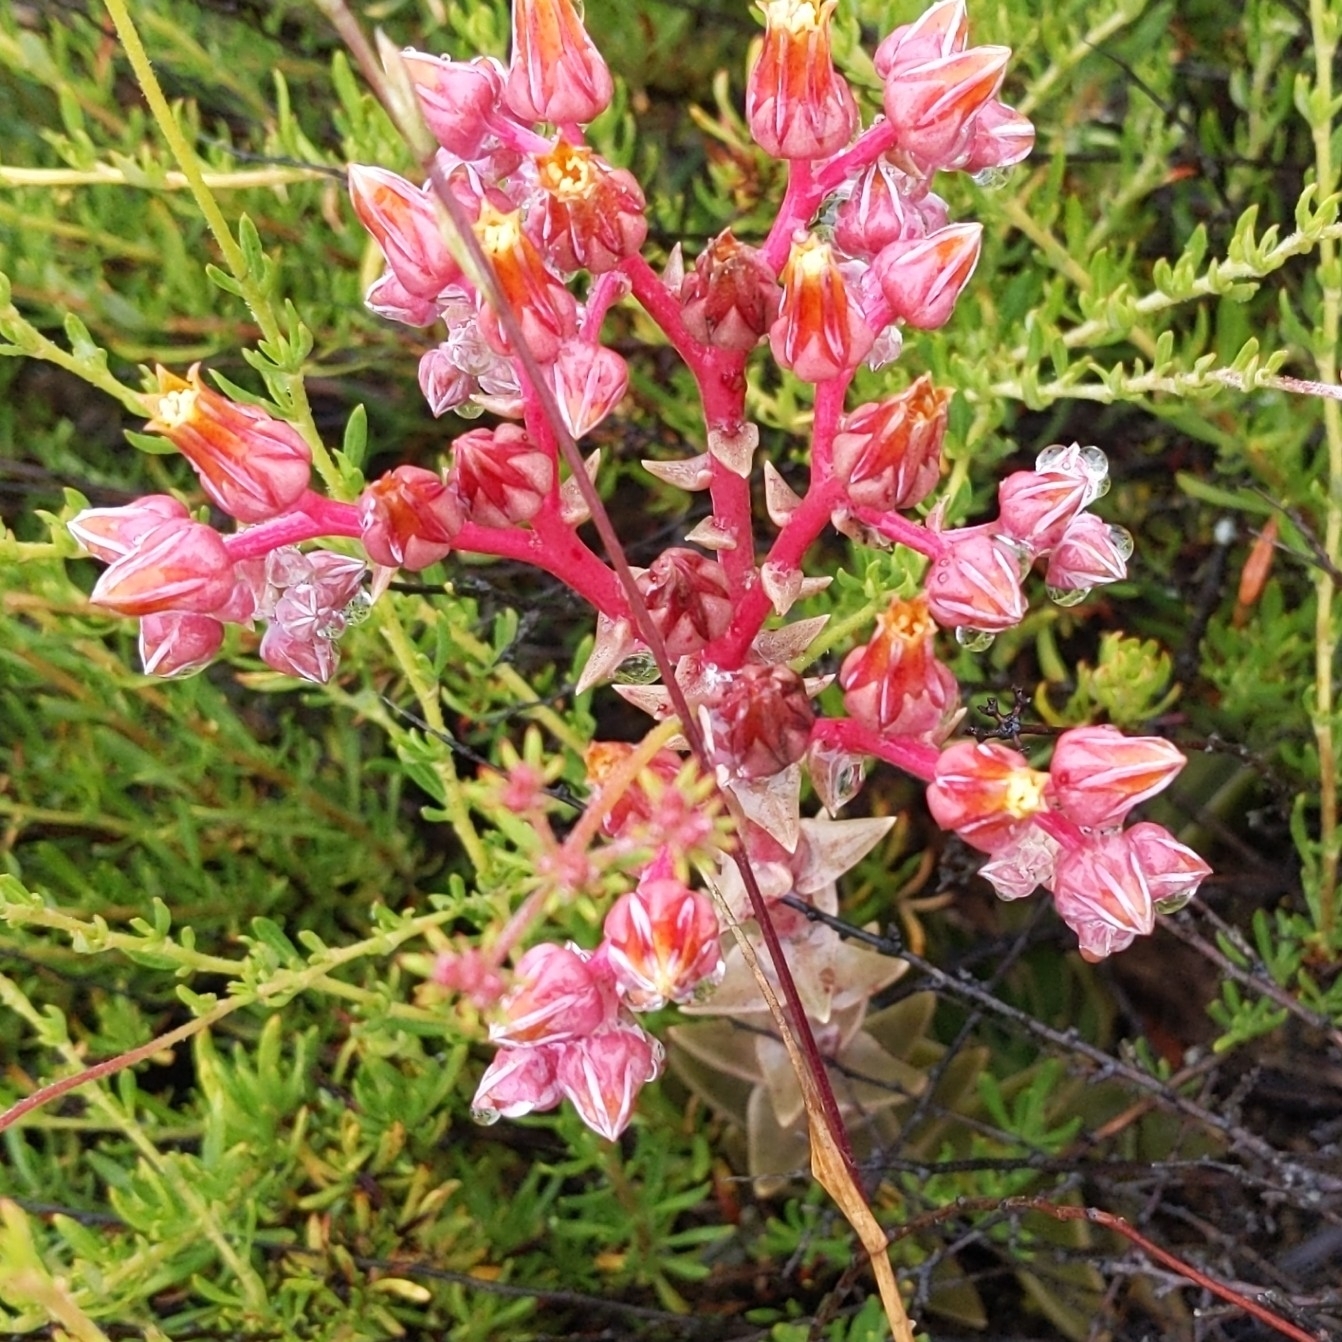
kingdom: Plantae
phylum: Tracheophyta
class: Magnoliopsida
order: Saxifragales
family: Crassulaceae
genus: Dudleya
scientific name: Dudleya lanceolata
